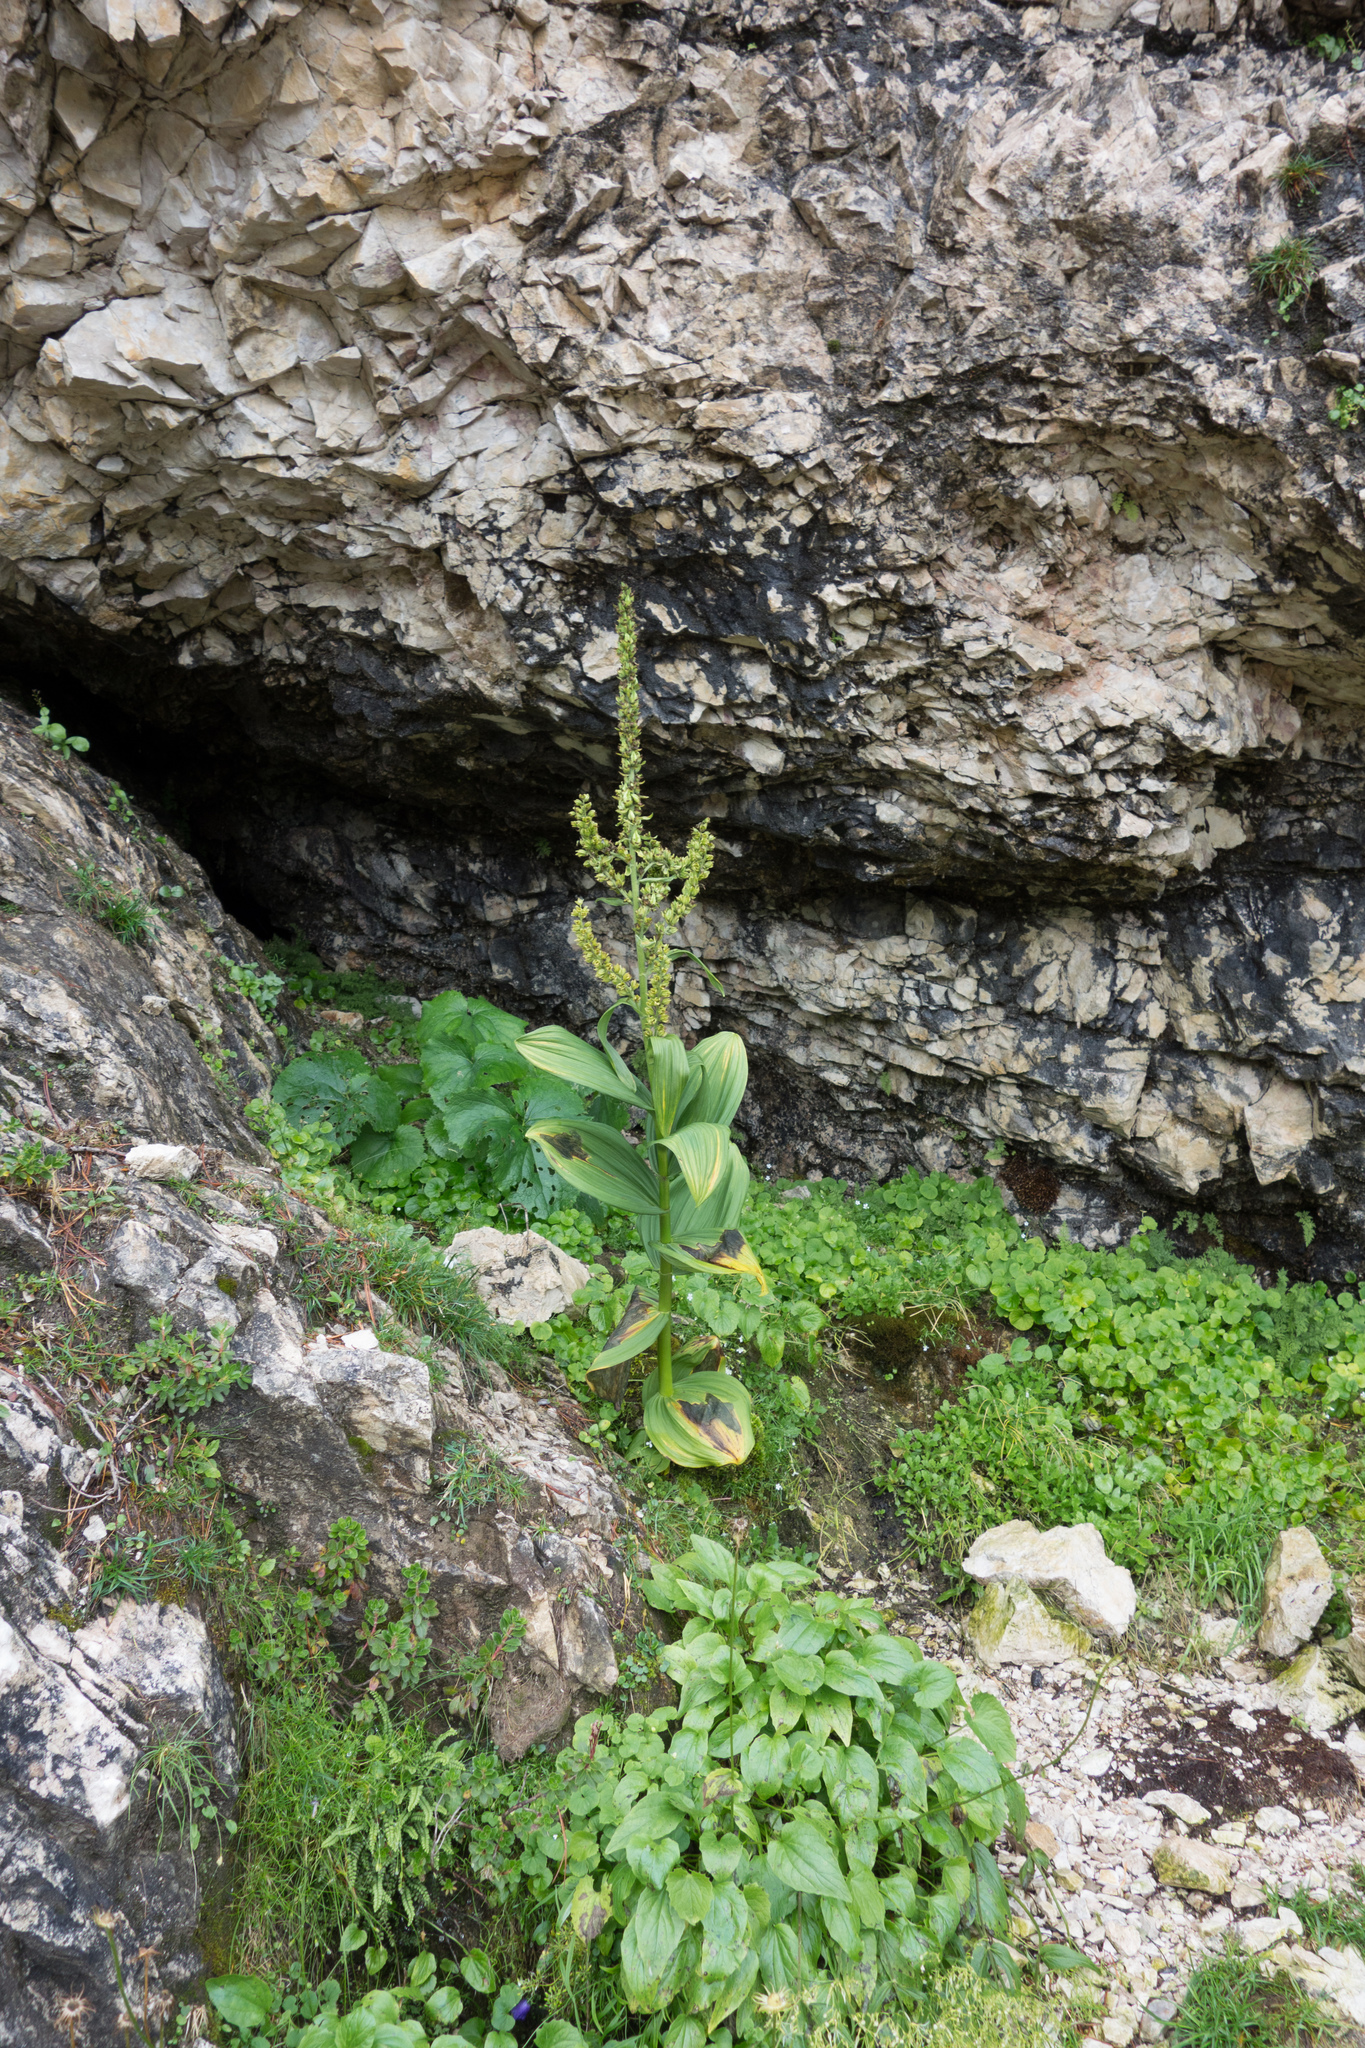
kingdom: Plantae
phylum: Tracheophyta
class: Liliopsida
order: Liliales
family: Melanthiaceae
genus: Veratrum
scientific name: Veratrum lobelianum
